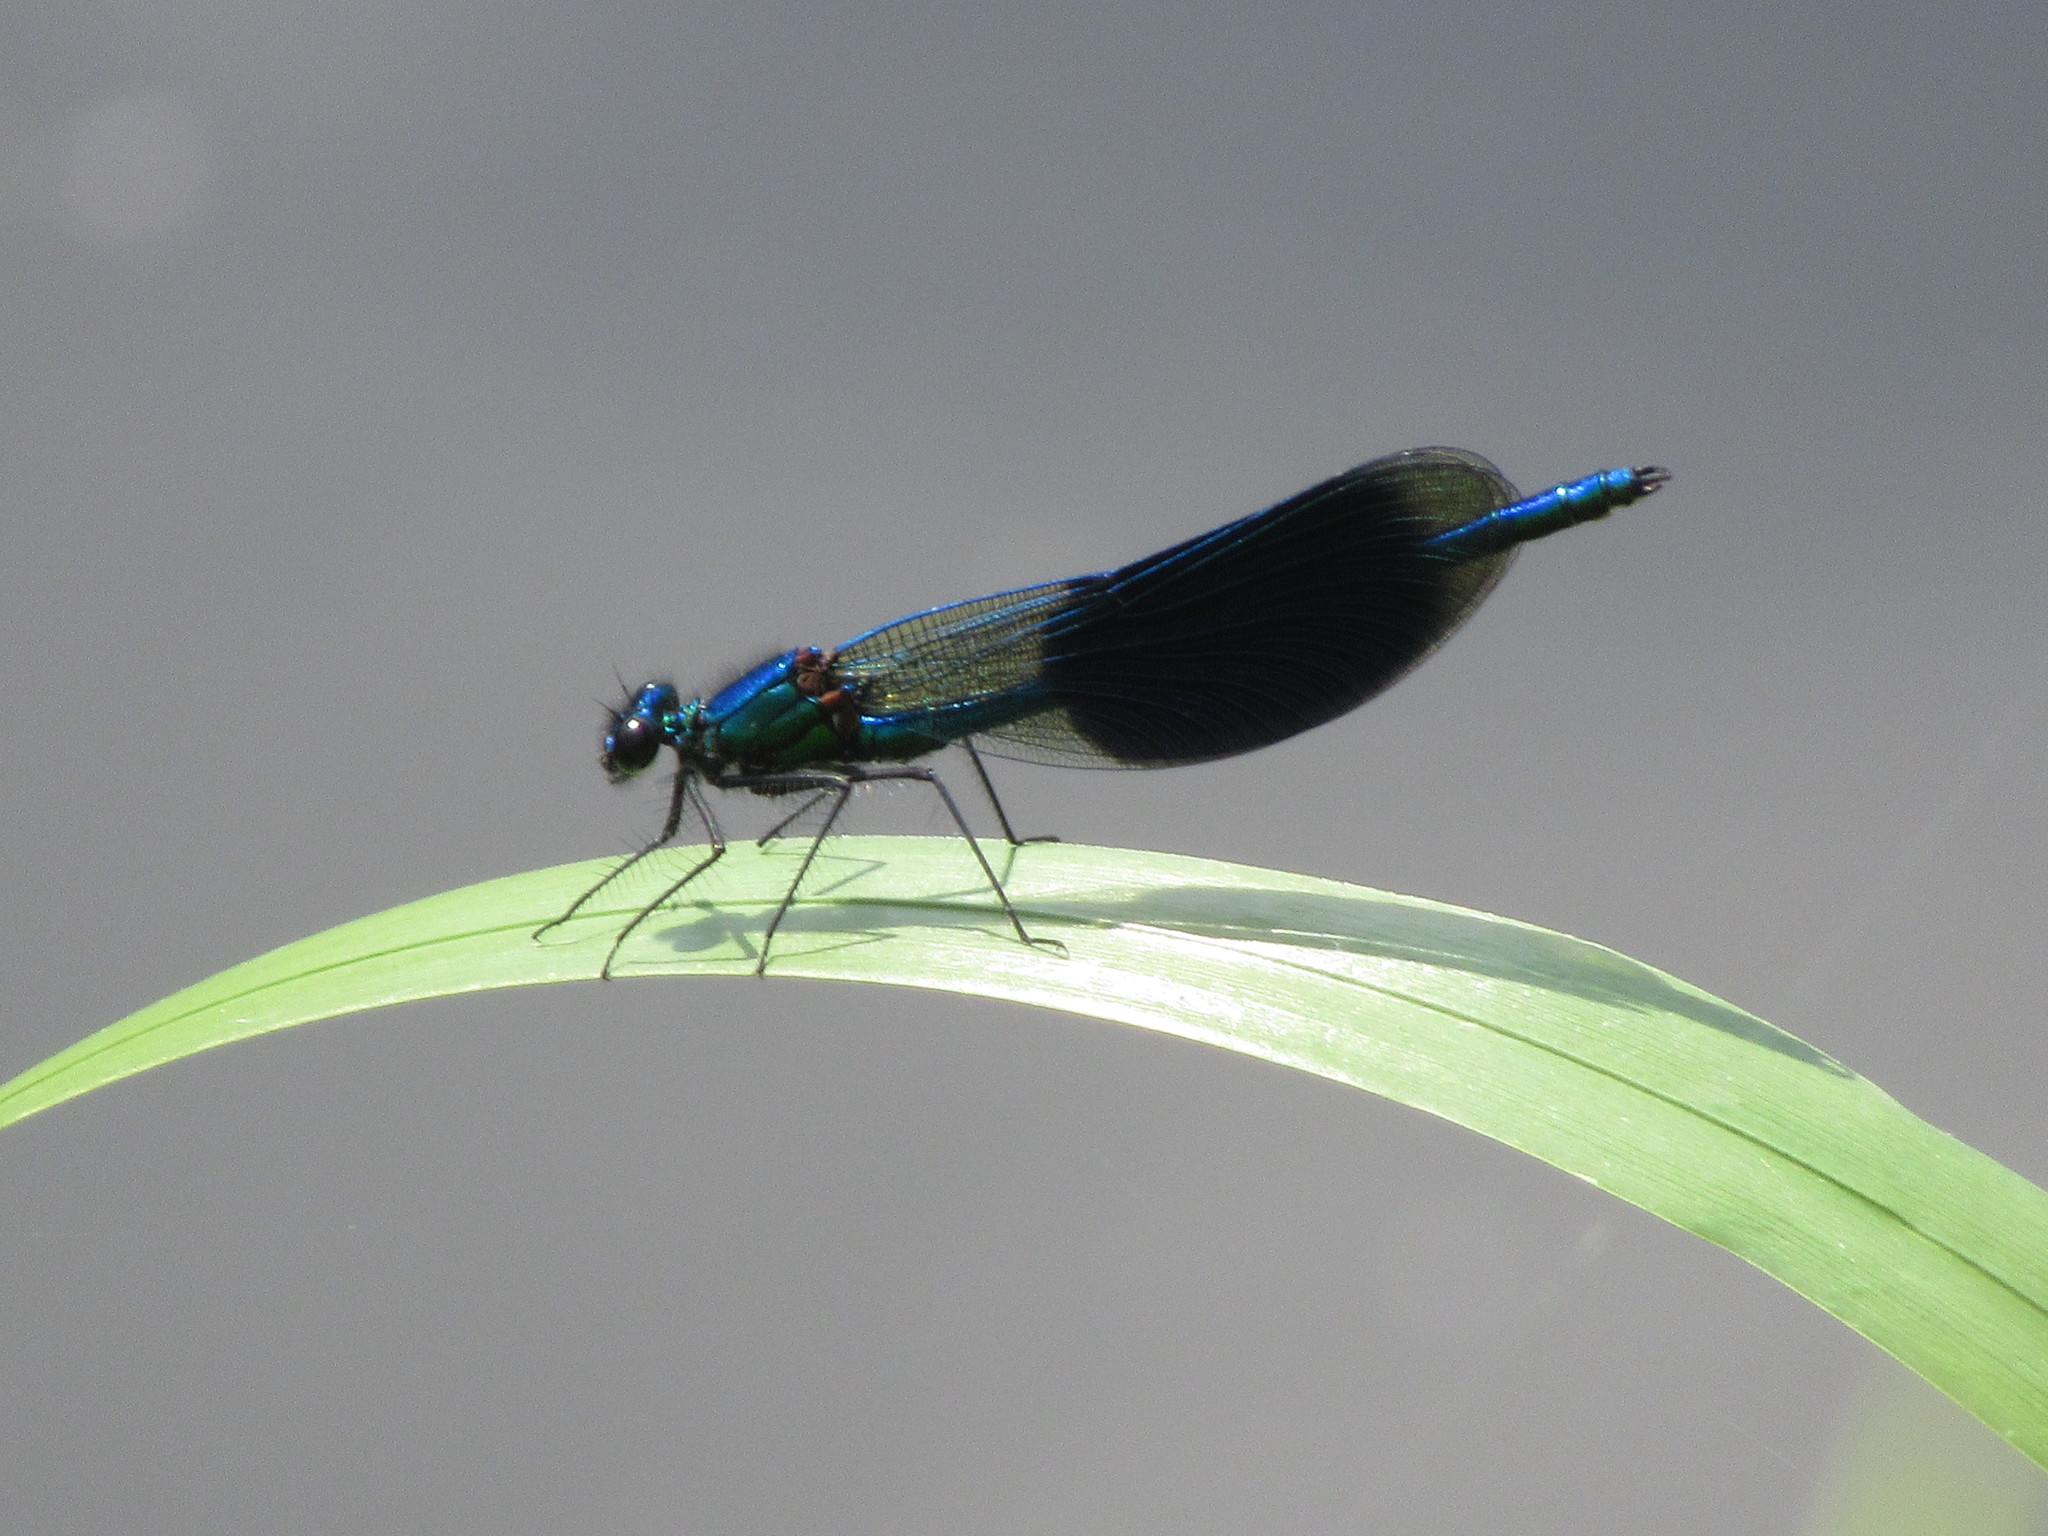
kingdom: Animalia
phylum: Arthropoda
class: Insecta
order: Odonata
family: Calopterygidae
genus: Calopteryx
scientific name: Calopteryx splendens
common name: Banded demoiselle
